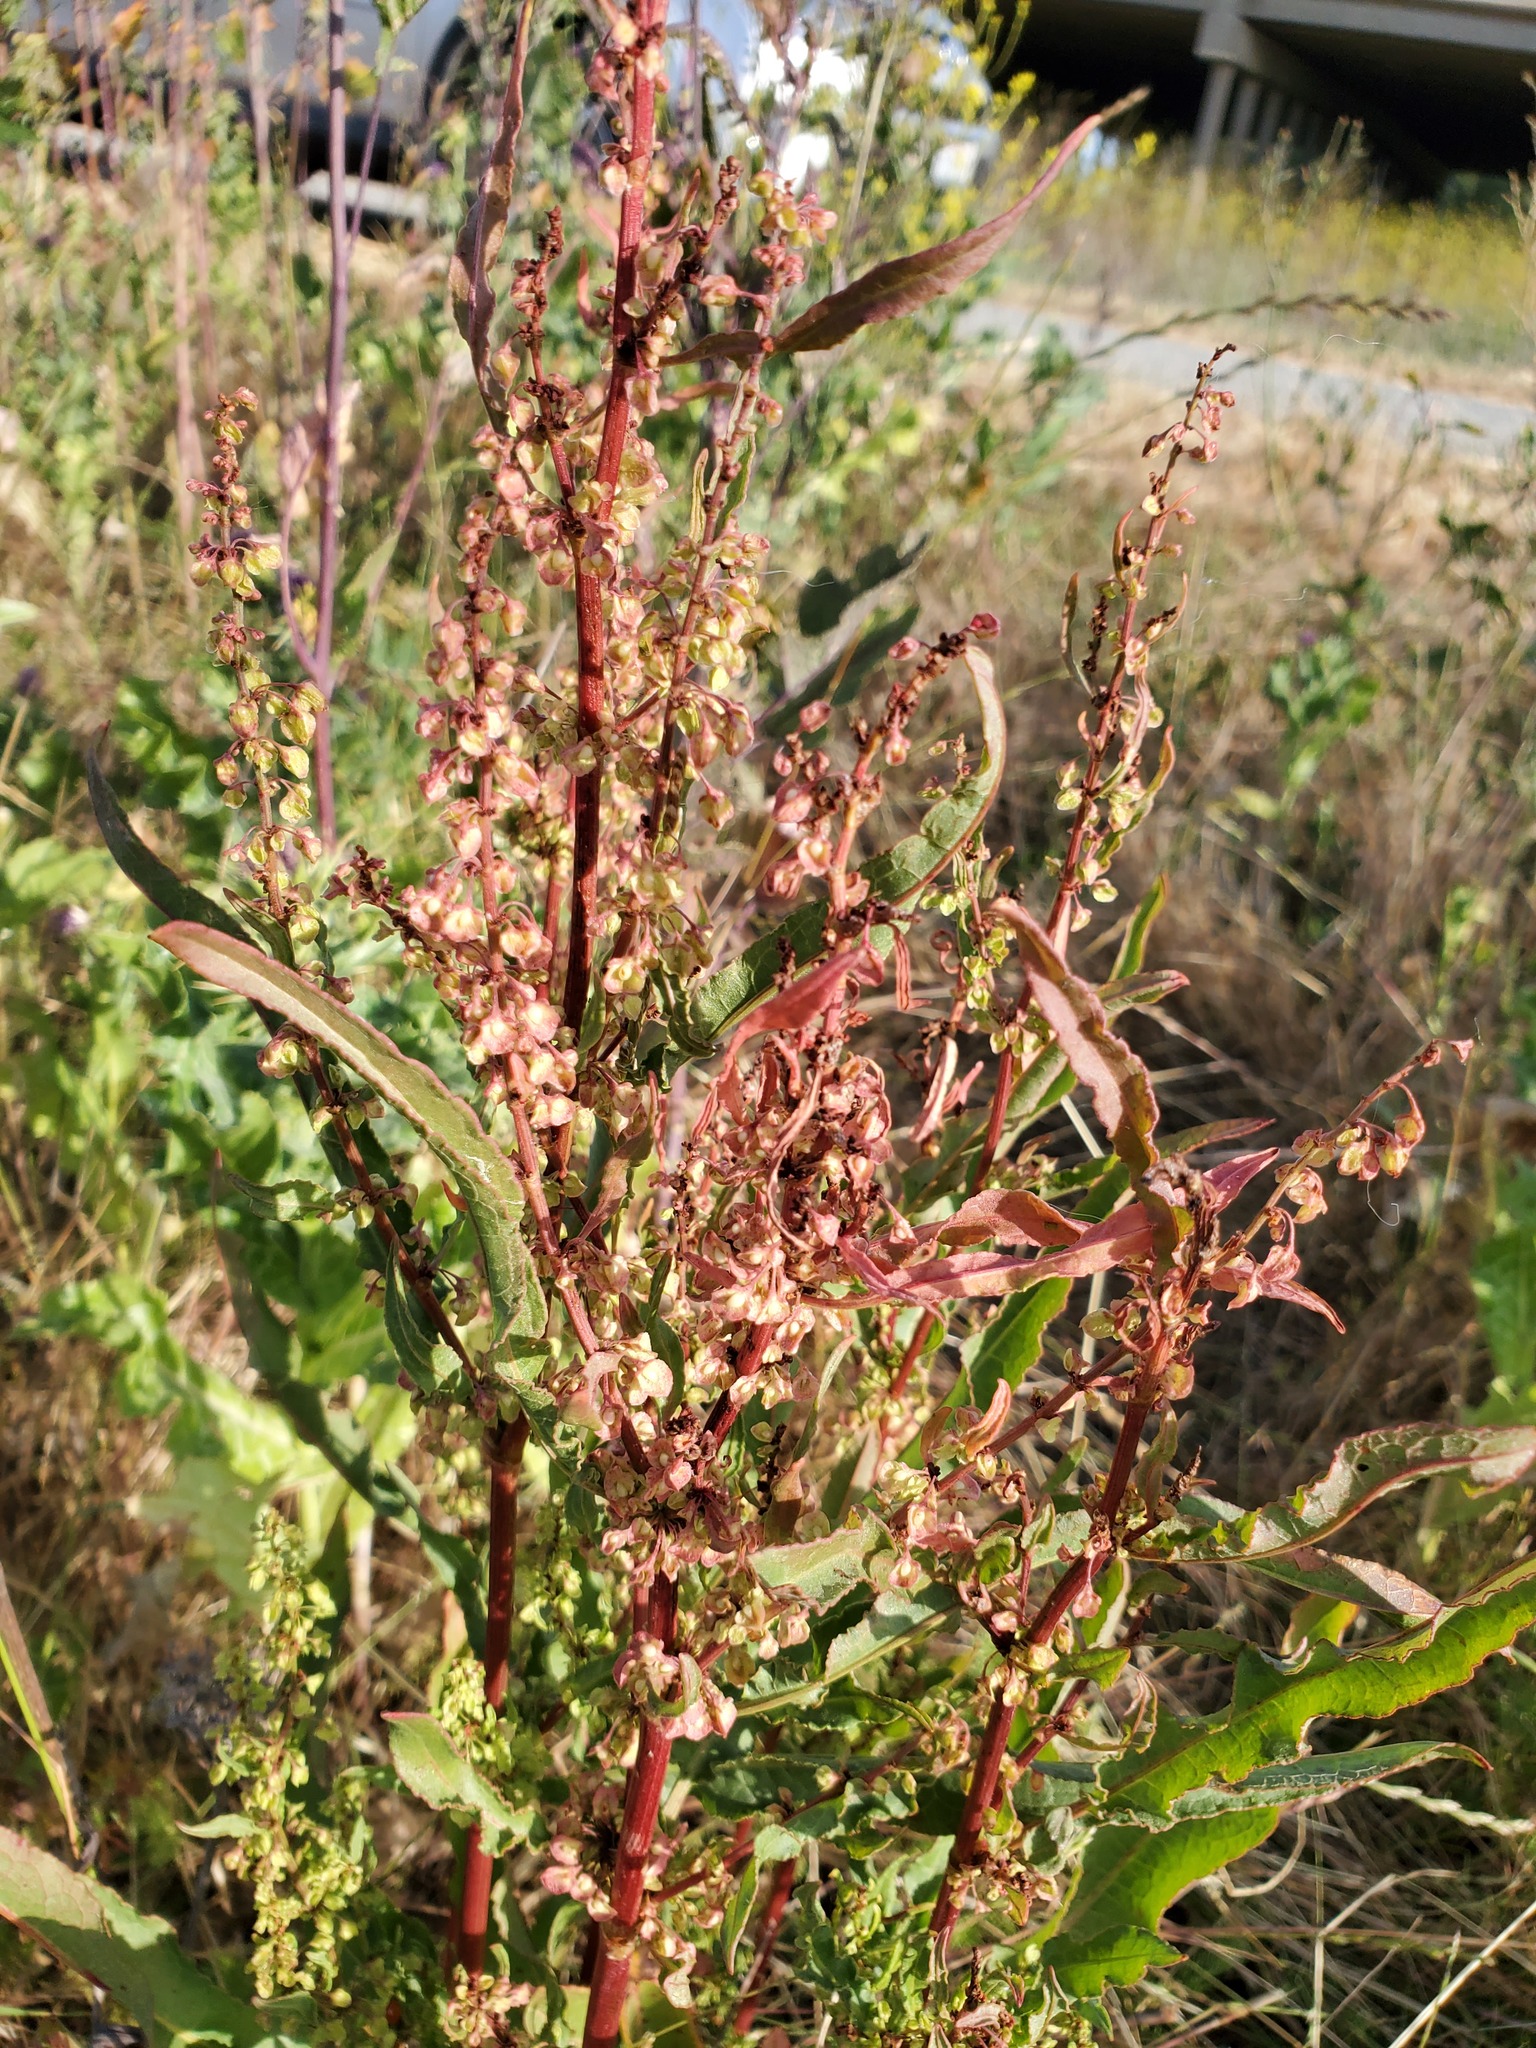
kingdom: Plantae
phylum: Tracheophyta
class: Magnoliopsida
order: Caryophyllales
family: Polygonaceae
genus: Rumex
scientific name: Rumex crispus
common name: Curled dock
